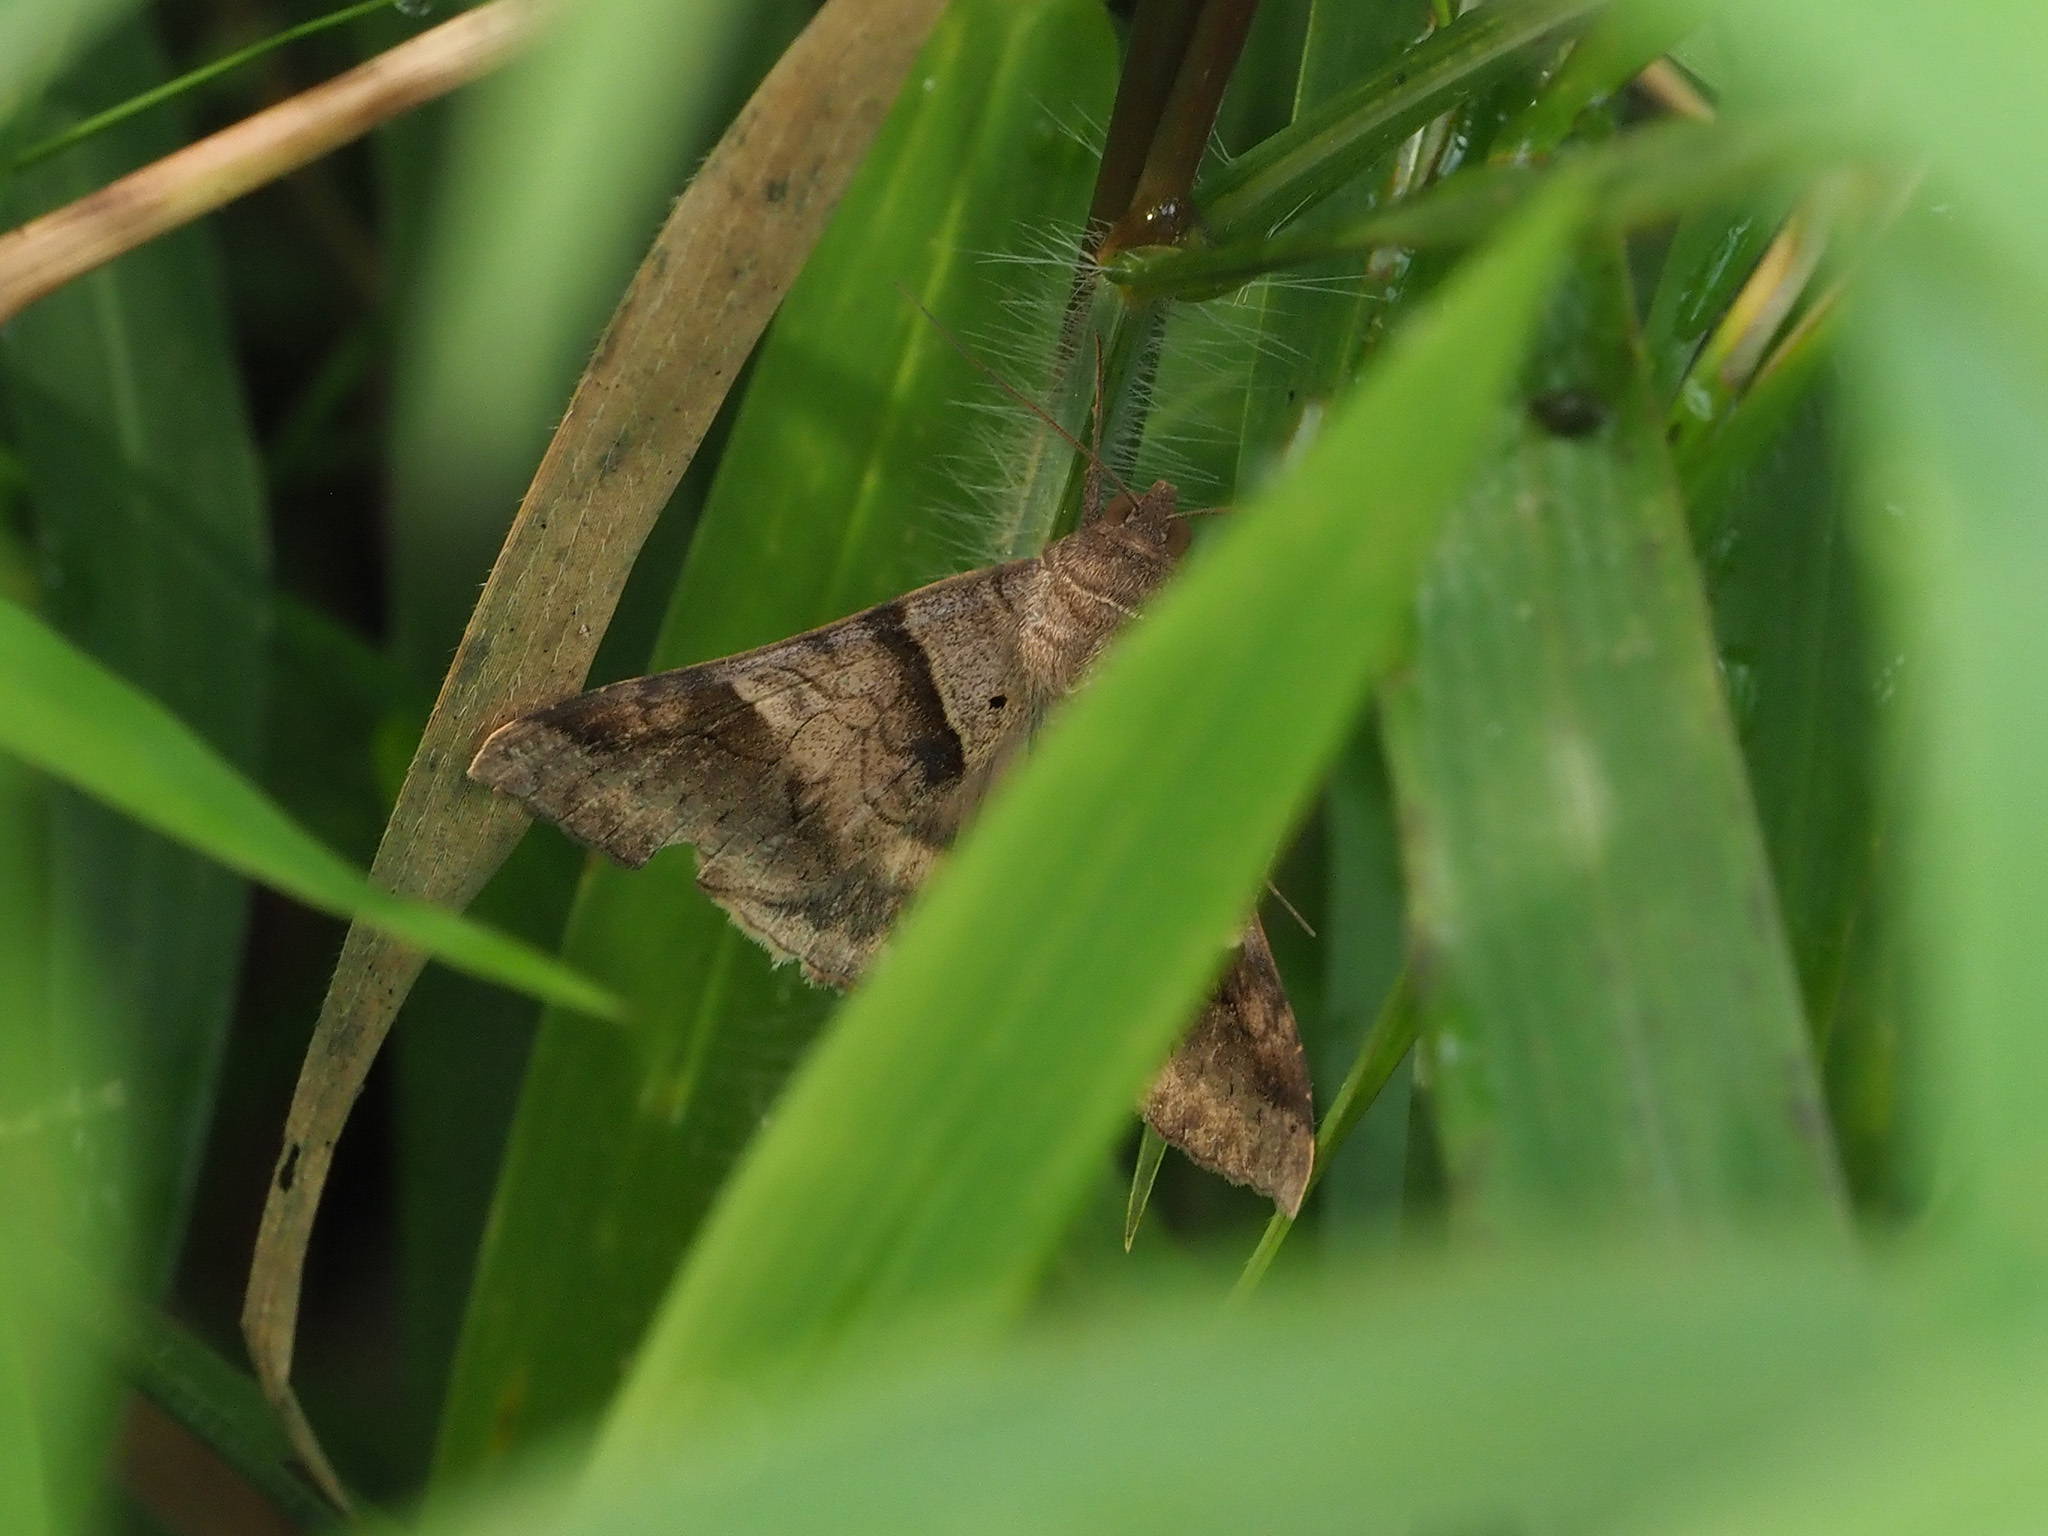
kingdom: Animalia
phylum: Arthropoda
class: Insecta
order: Lepidoptera
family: Erebidae
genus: Mocis
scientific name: Mocis undata
